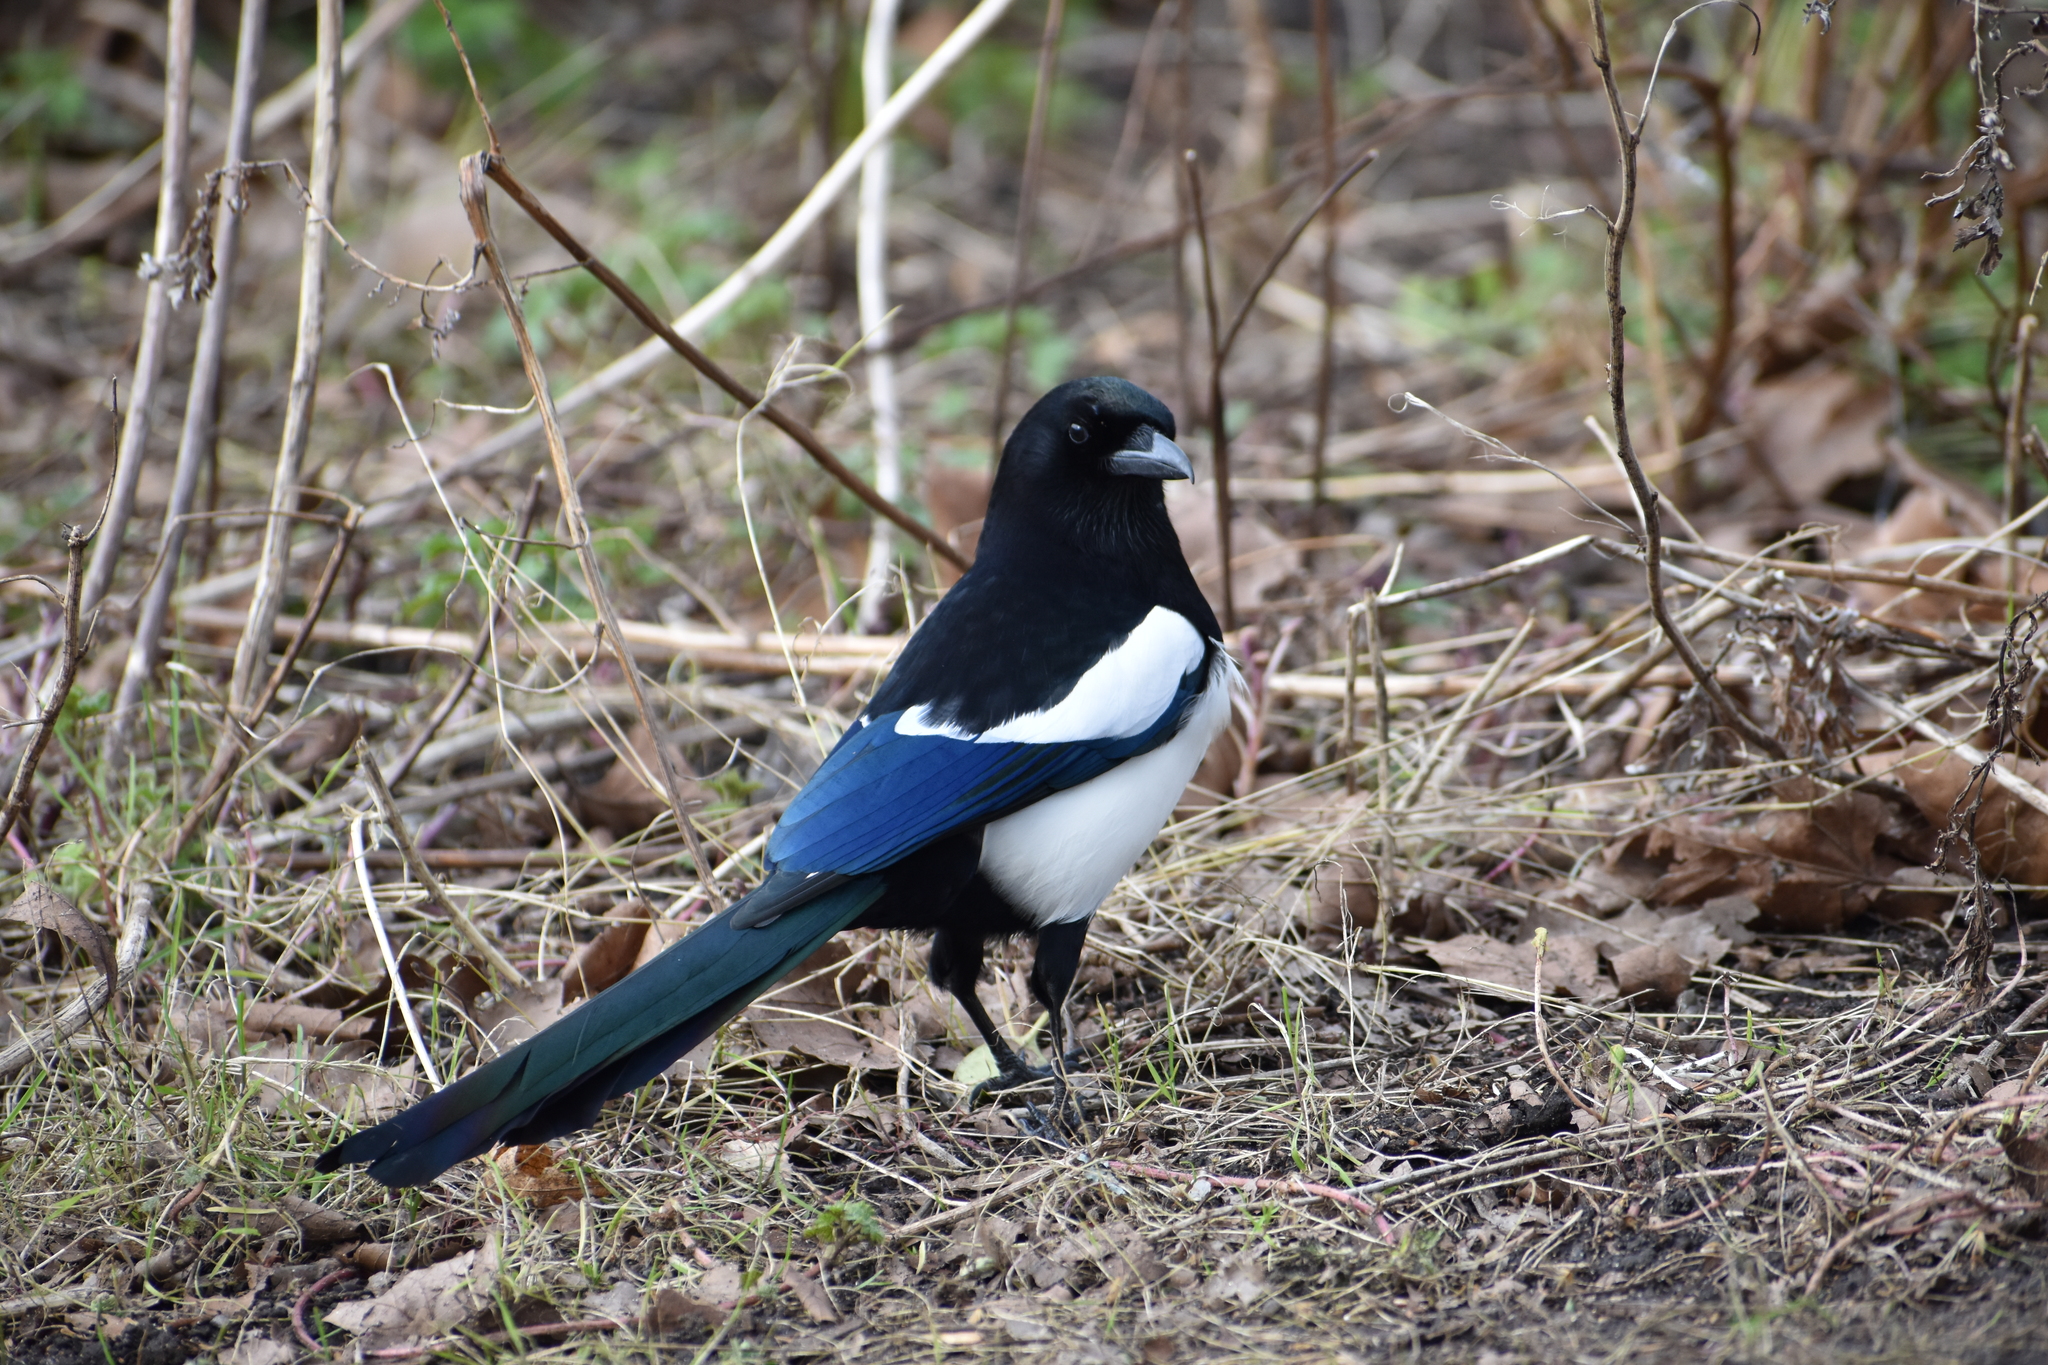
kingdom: Animalia
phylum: Chordata
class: Aves
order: Passeriformes
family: Corvidae
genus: Pica
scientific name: Pica pica
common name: Eurasian magpie
